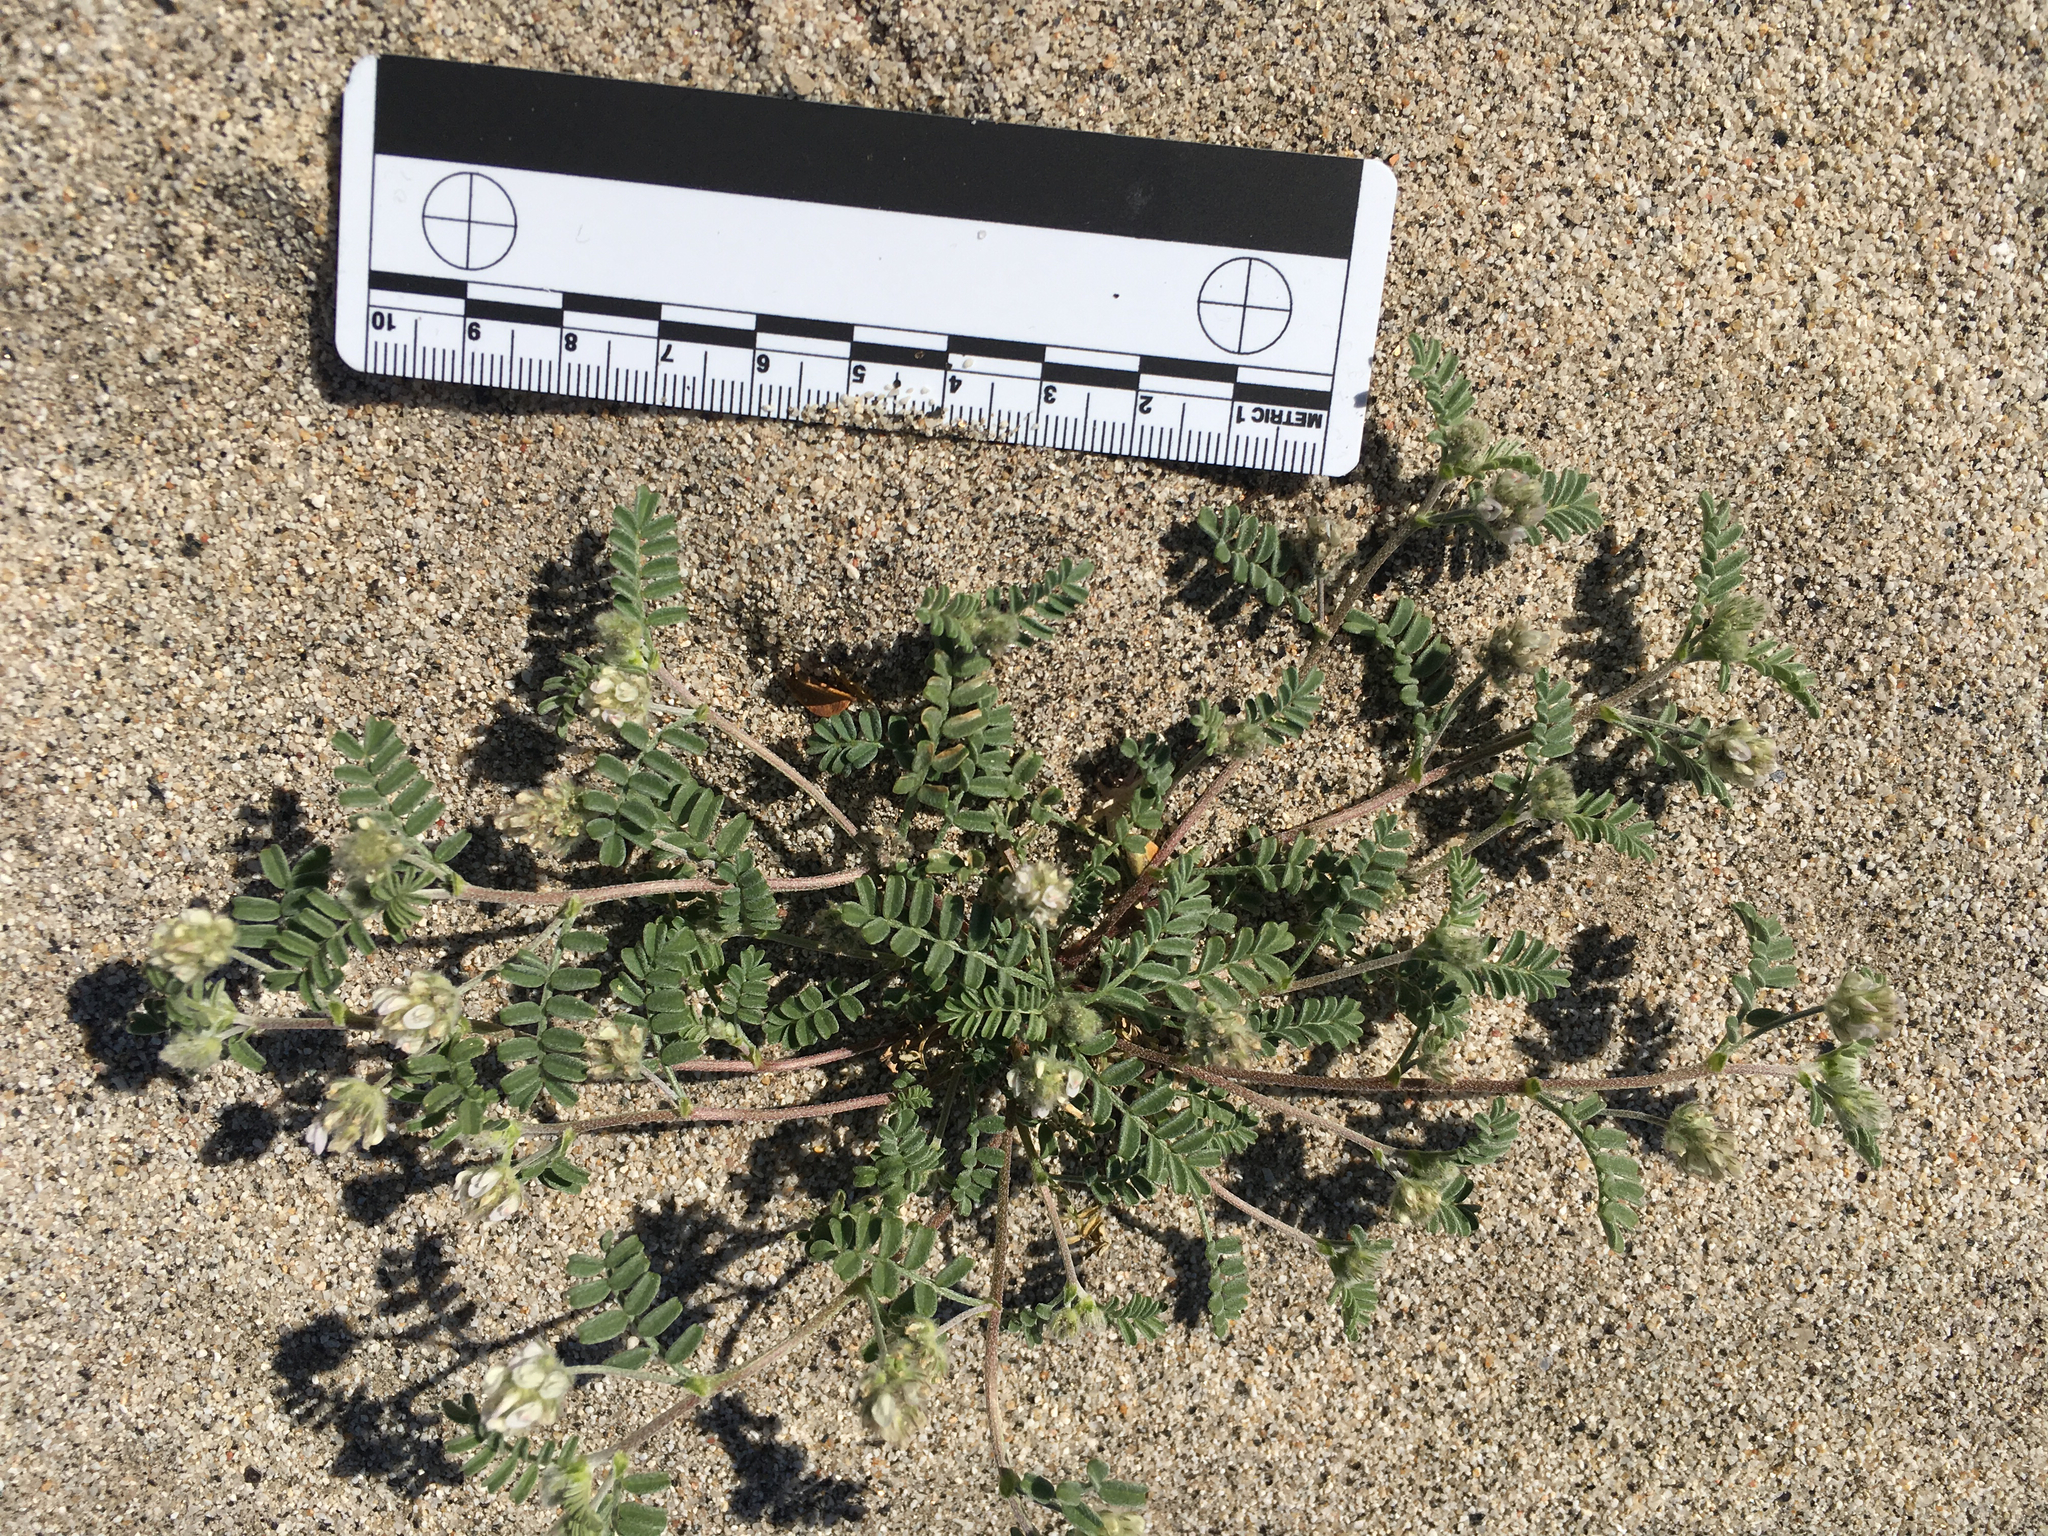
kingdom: Plantae
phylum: Tracheophyta
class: Magnoliopsida
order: Fabales
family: Fabaceae
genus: Astragalus
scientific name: Astragalus didymocarpus
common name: Dwarf white milkvetch
